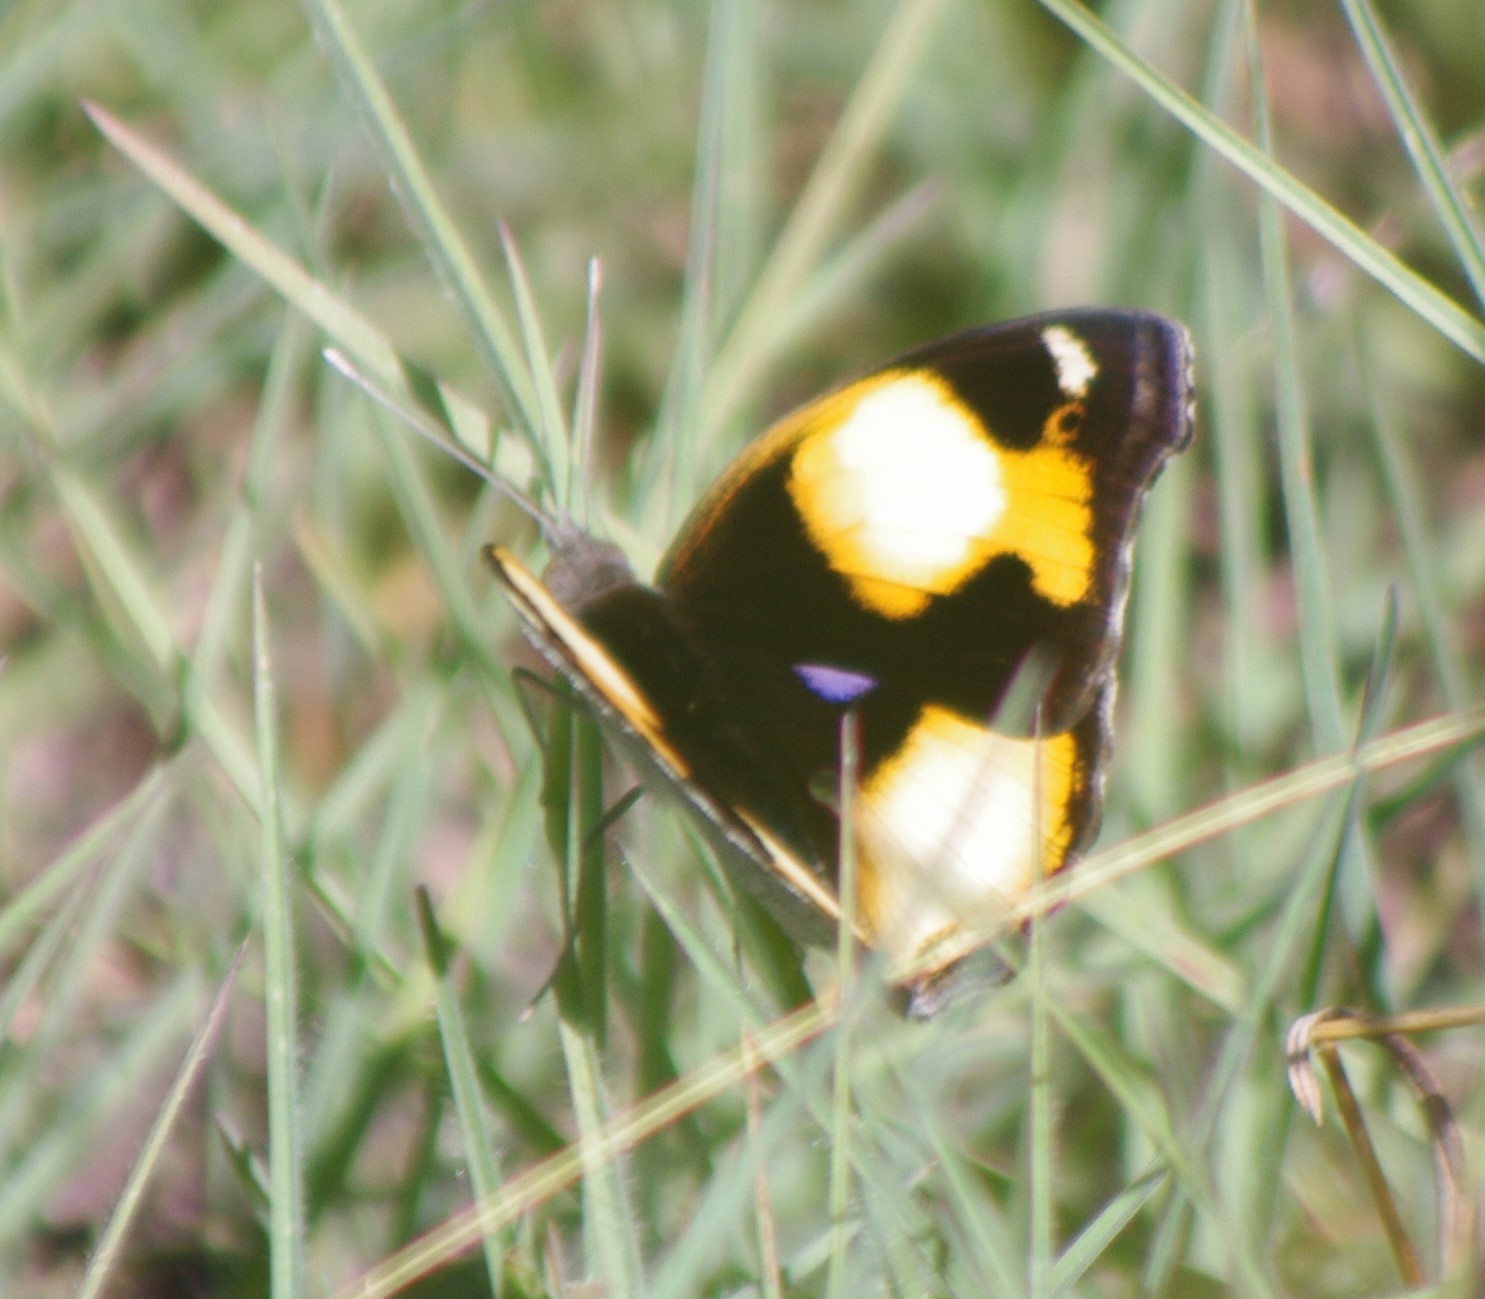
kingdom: Animalia
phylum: Arthropoda
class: Insecta
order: Lepidoptera
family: Nymphalidae
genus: Junonia
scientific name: Junonia hierta
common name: Yellow pansy
